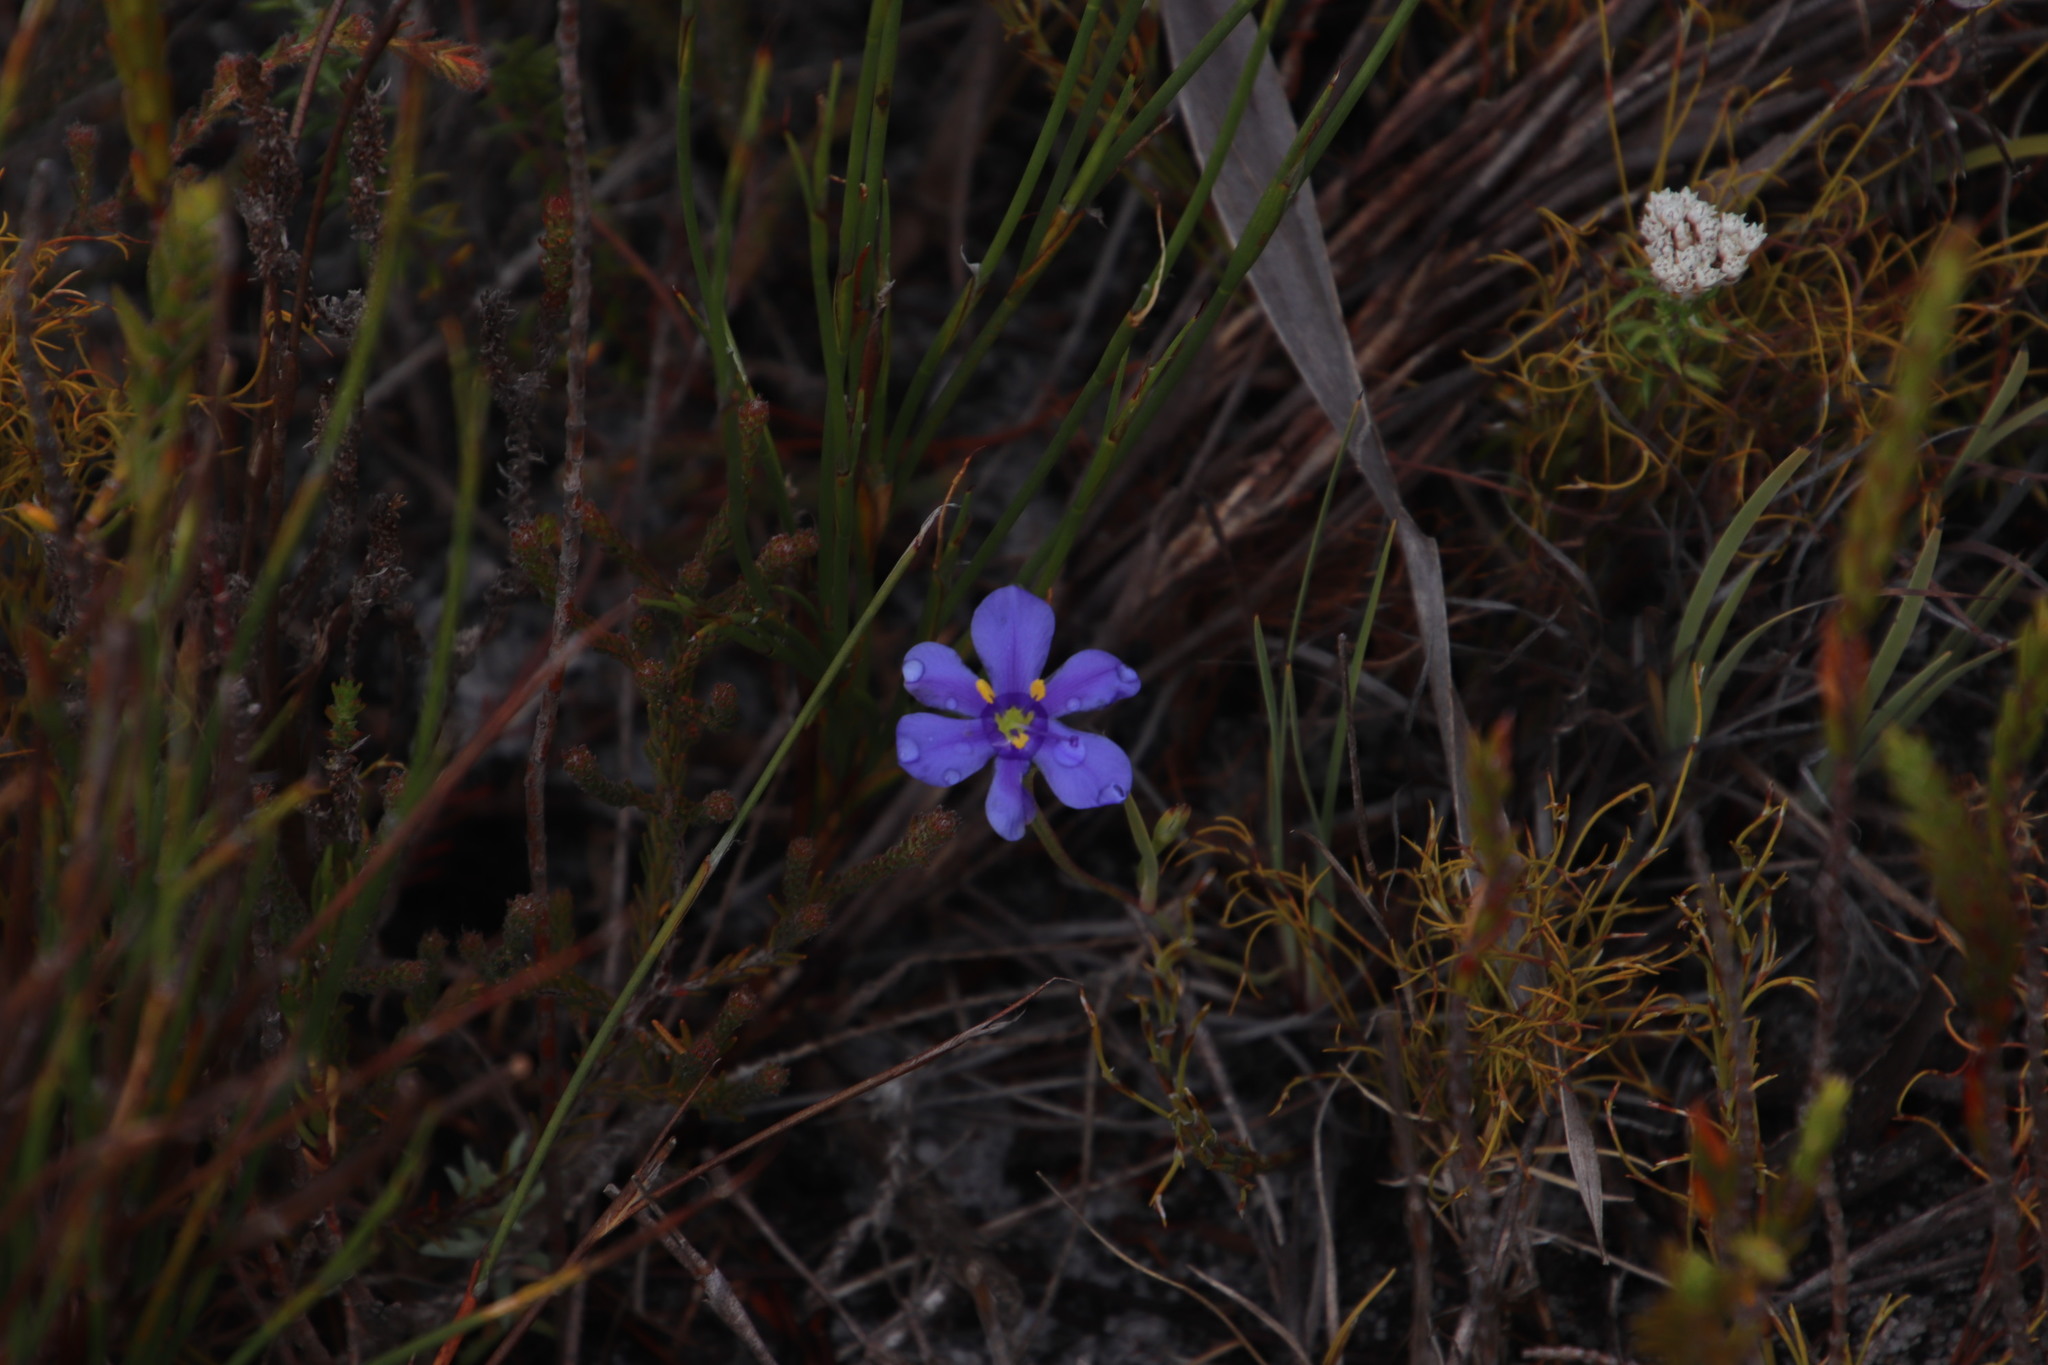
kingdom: Plantae
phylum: Tracheophyta
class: Liliopsida
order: Asparagales
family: Iridaceae
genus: Aristea
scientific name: Aristea africana
